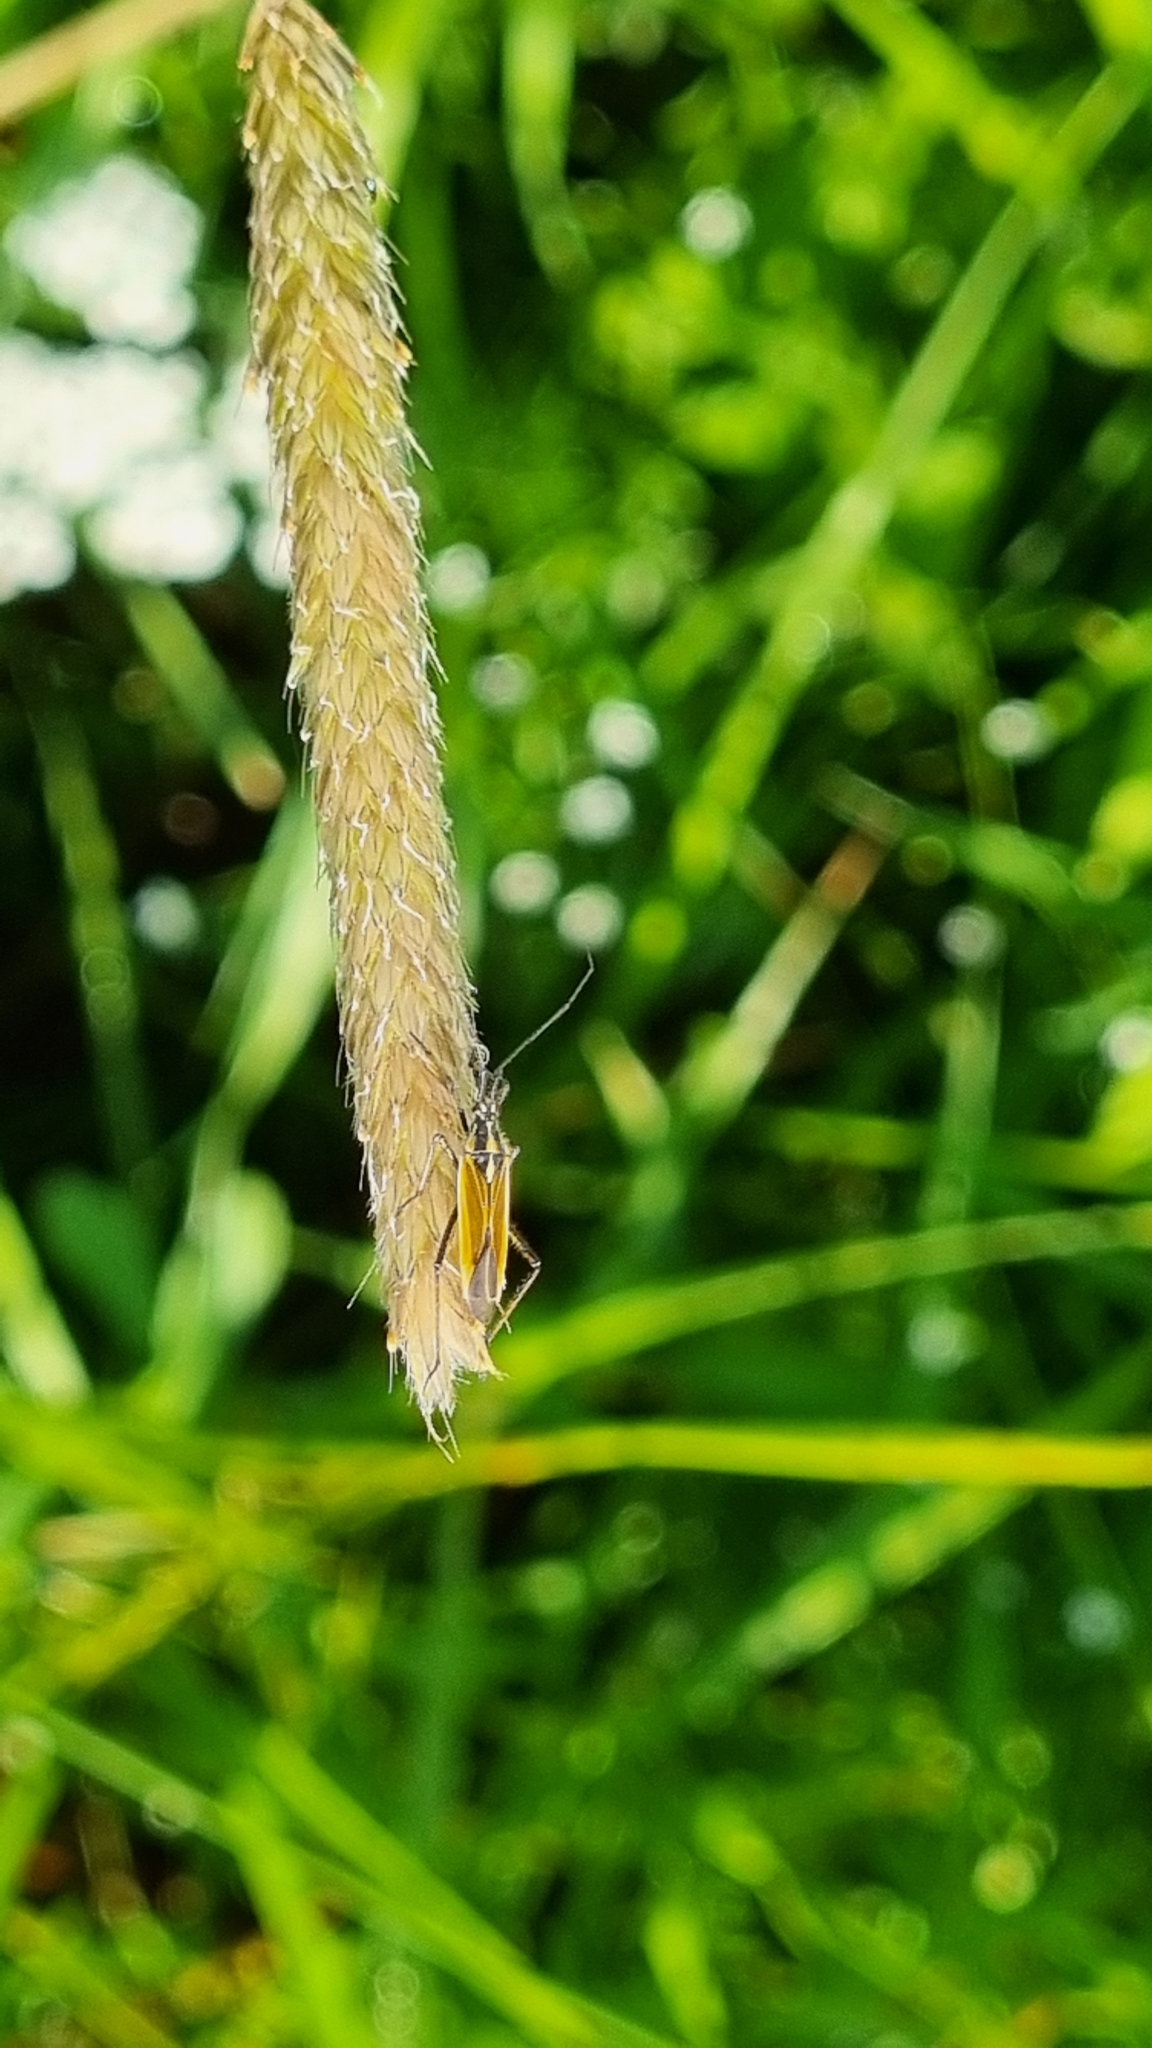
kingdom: Animalia
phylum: Arthropoda
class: Insecta
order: Hemiptera
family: Miridae
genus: Leptopterna
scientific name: Leptopterna dolabrata
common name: Meadow plant bug
